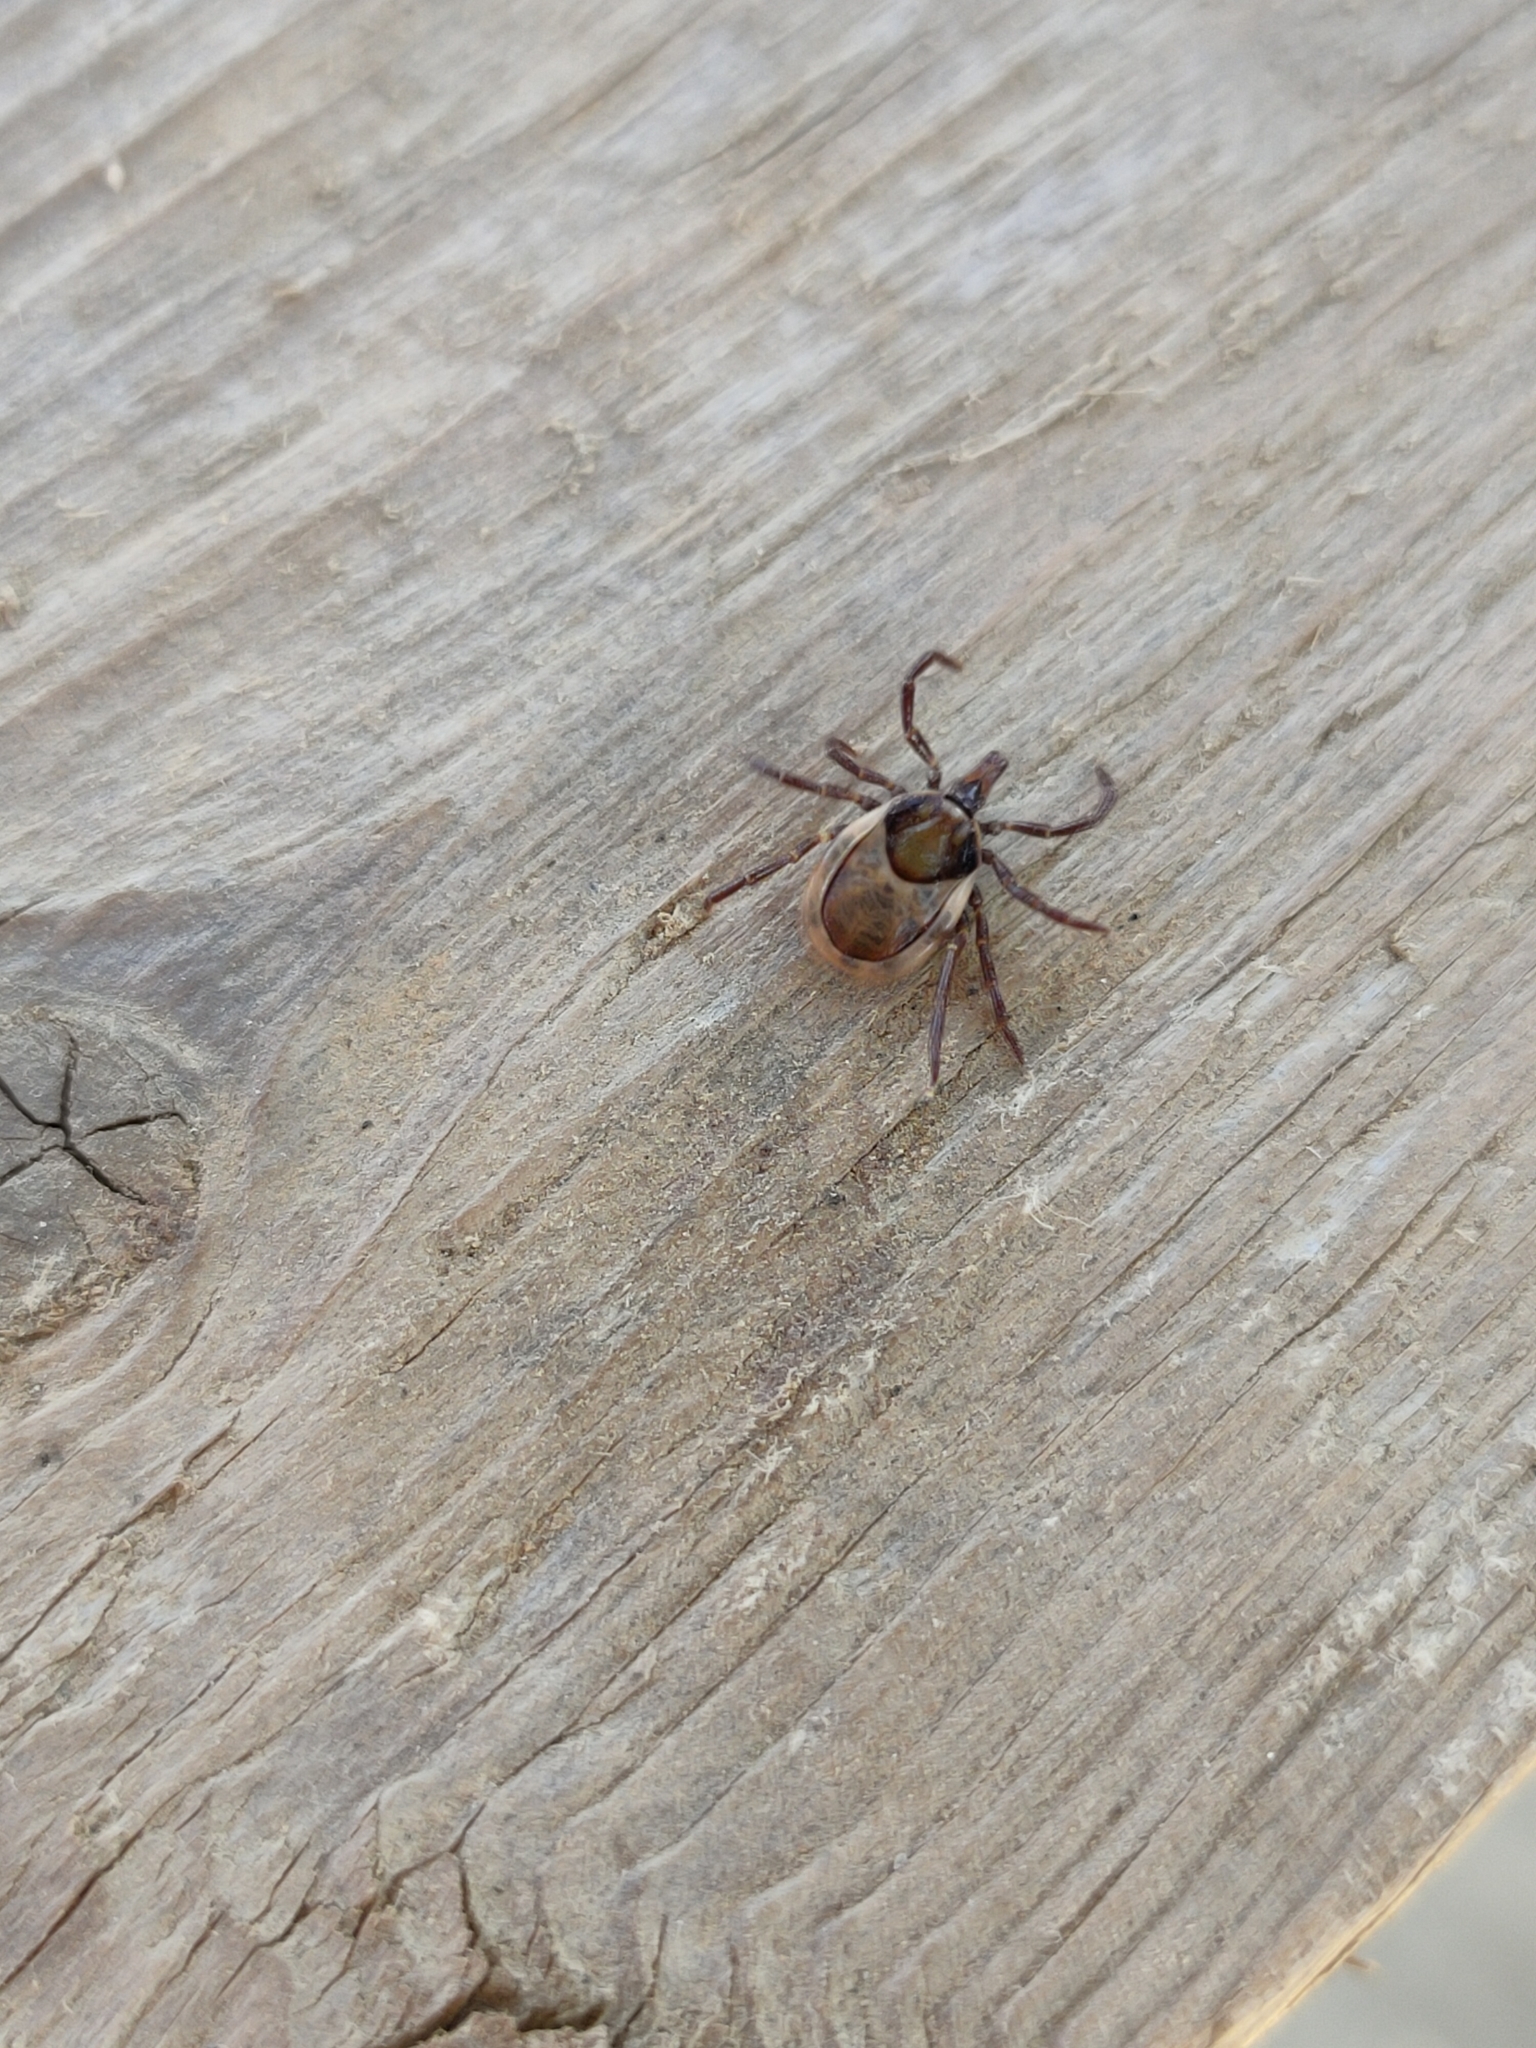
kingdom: Animalia
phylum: Arthropoda
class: Arachnida
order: Ixodida
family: Ixodidae
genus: Ixodes
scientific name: Ixodes acutitarsus
